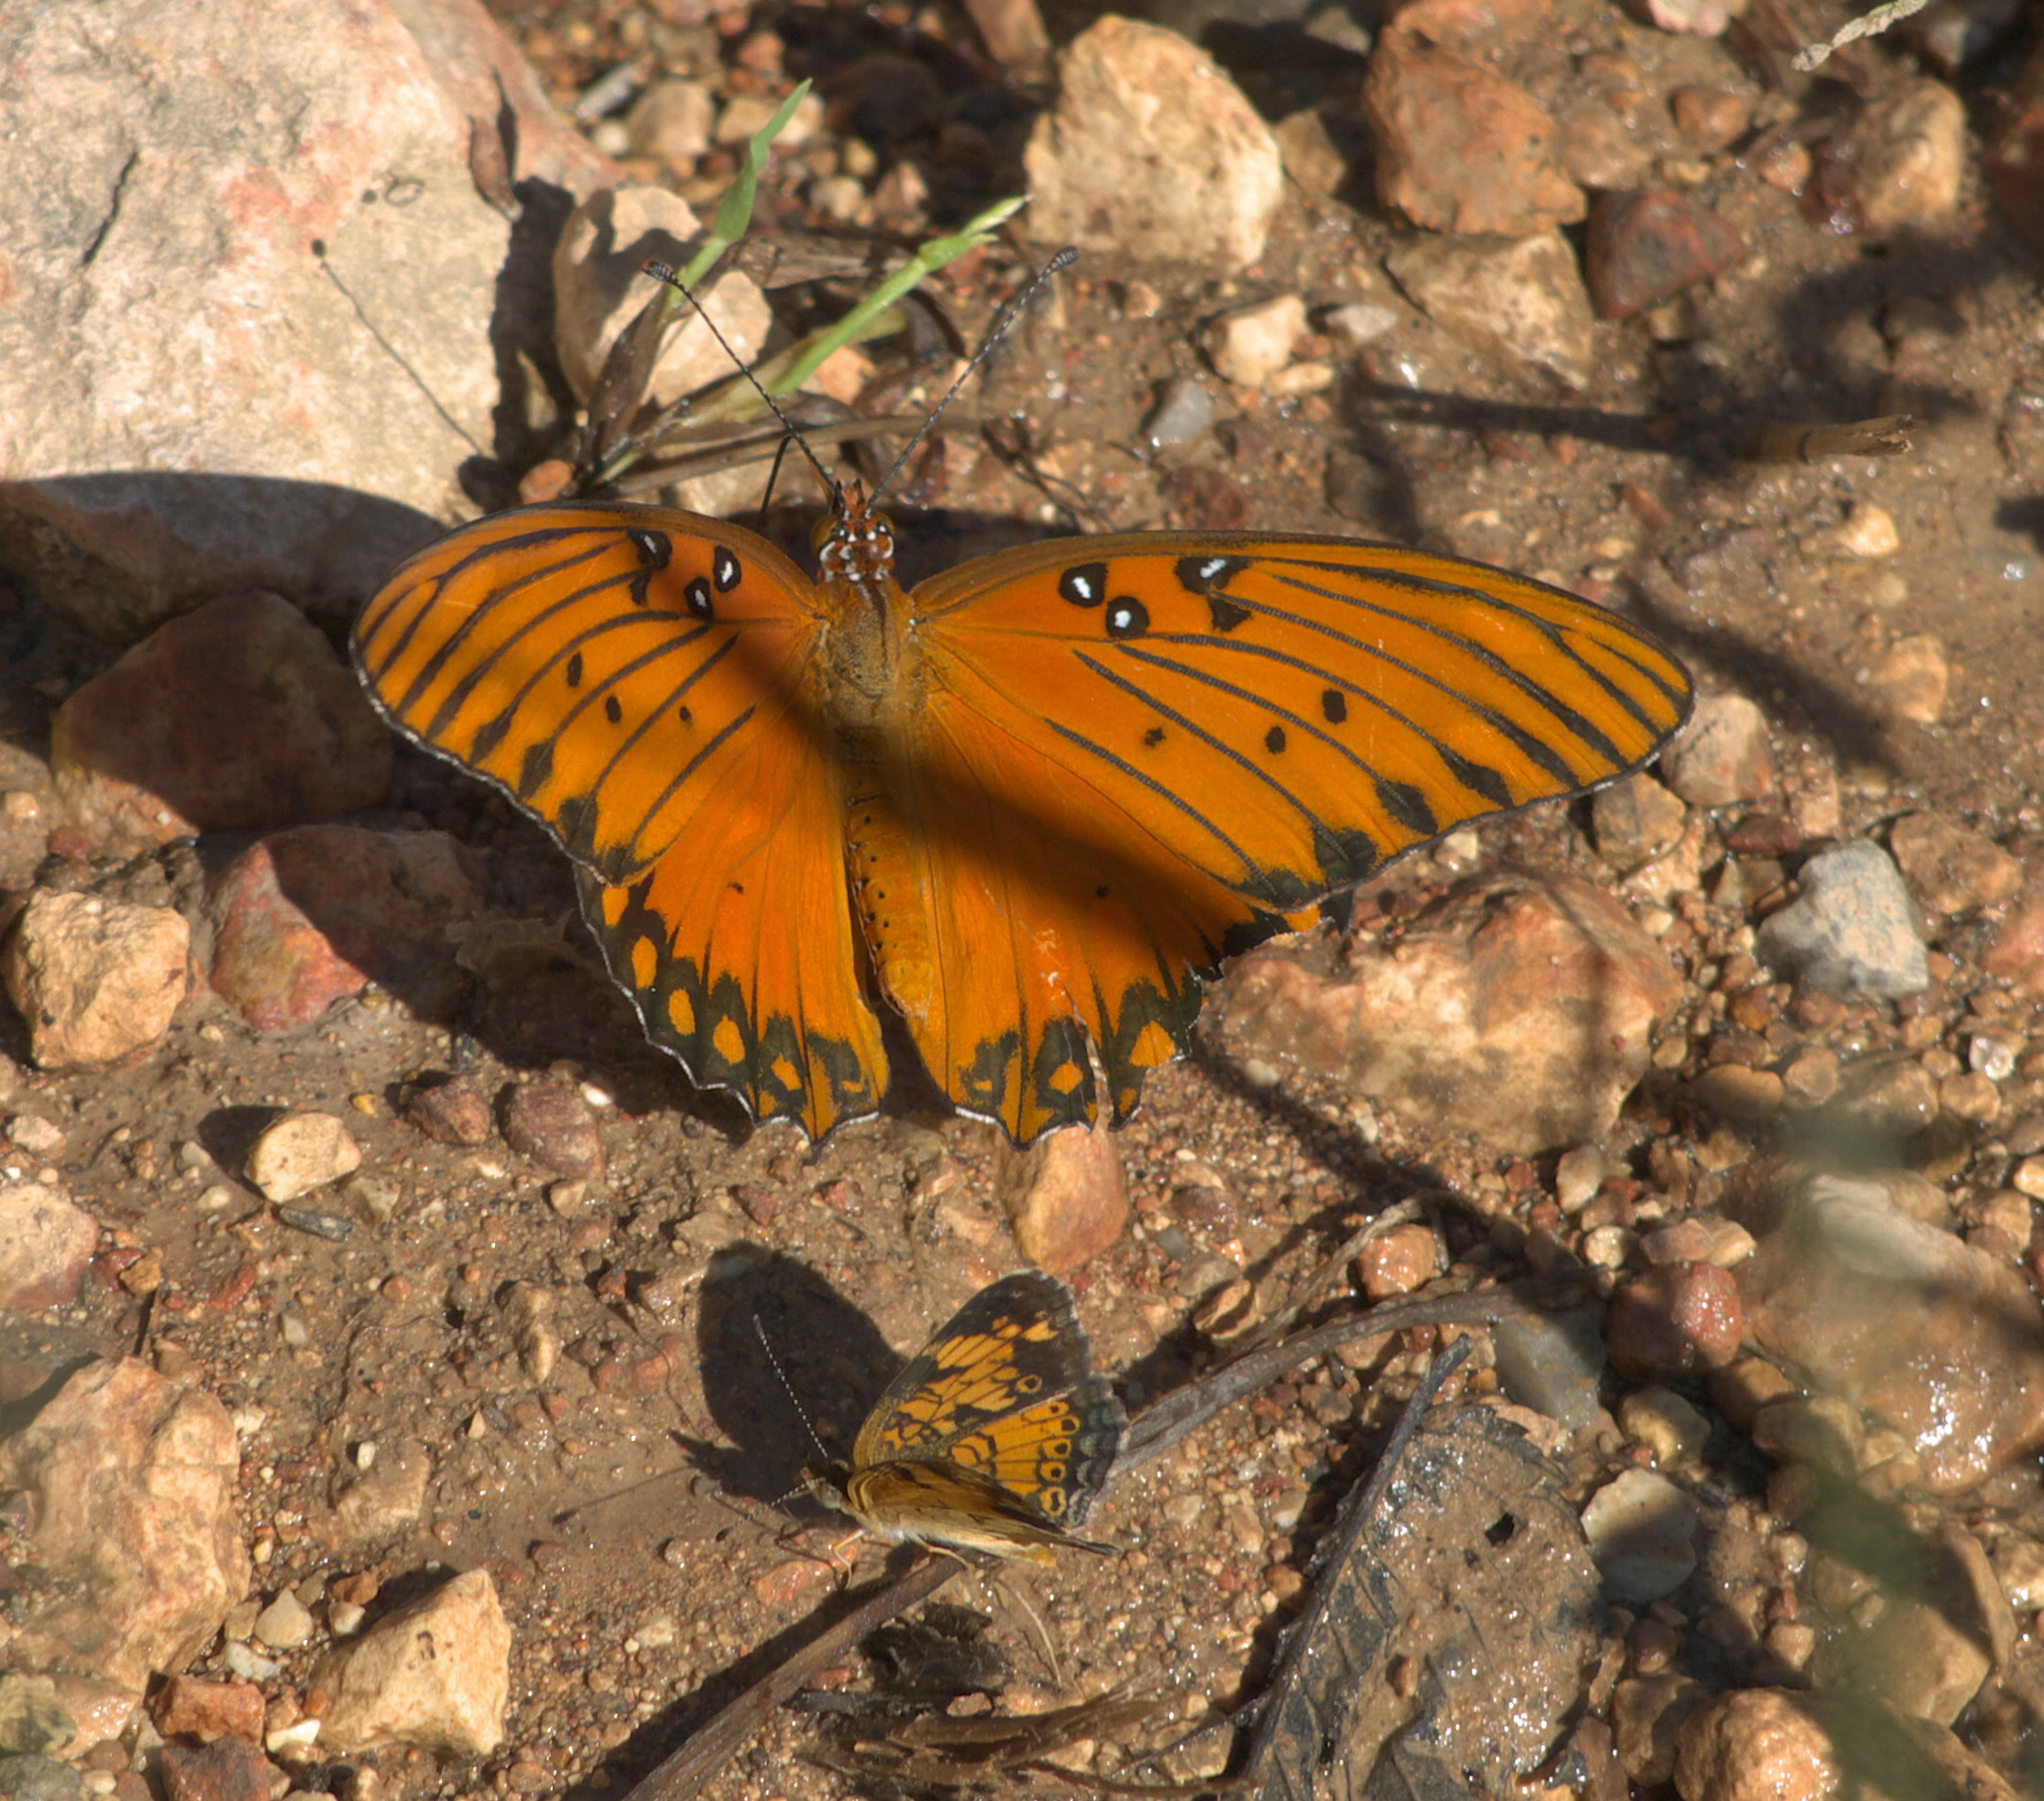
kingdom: Animalia
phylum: Arthropoda
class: Insecta
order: Lepidoptera
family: Nymphalidae
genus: Dione
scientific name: Dione vanillae
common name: Gulf fritillary
